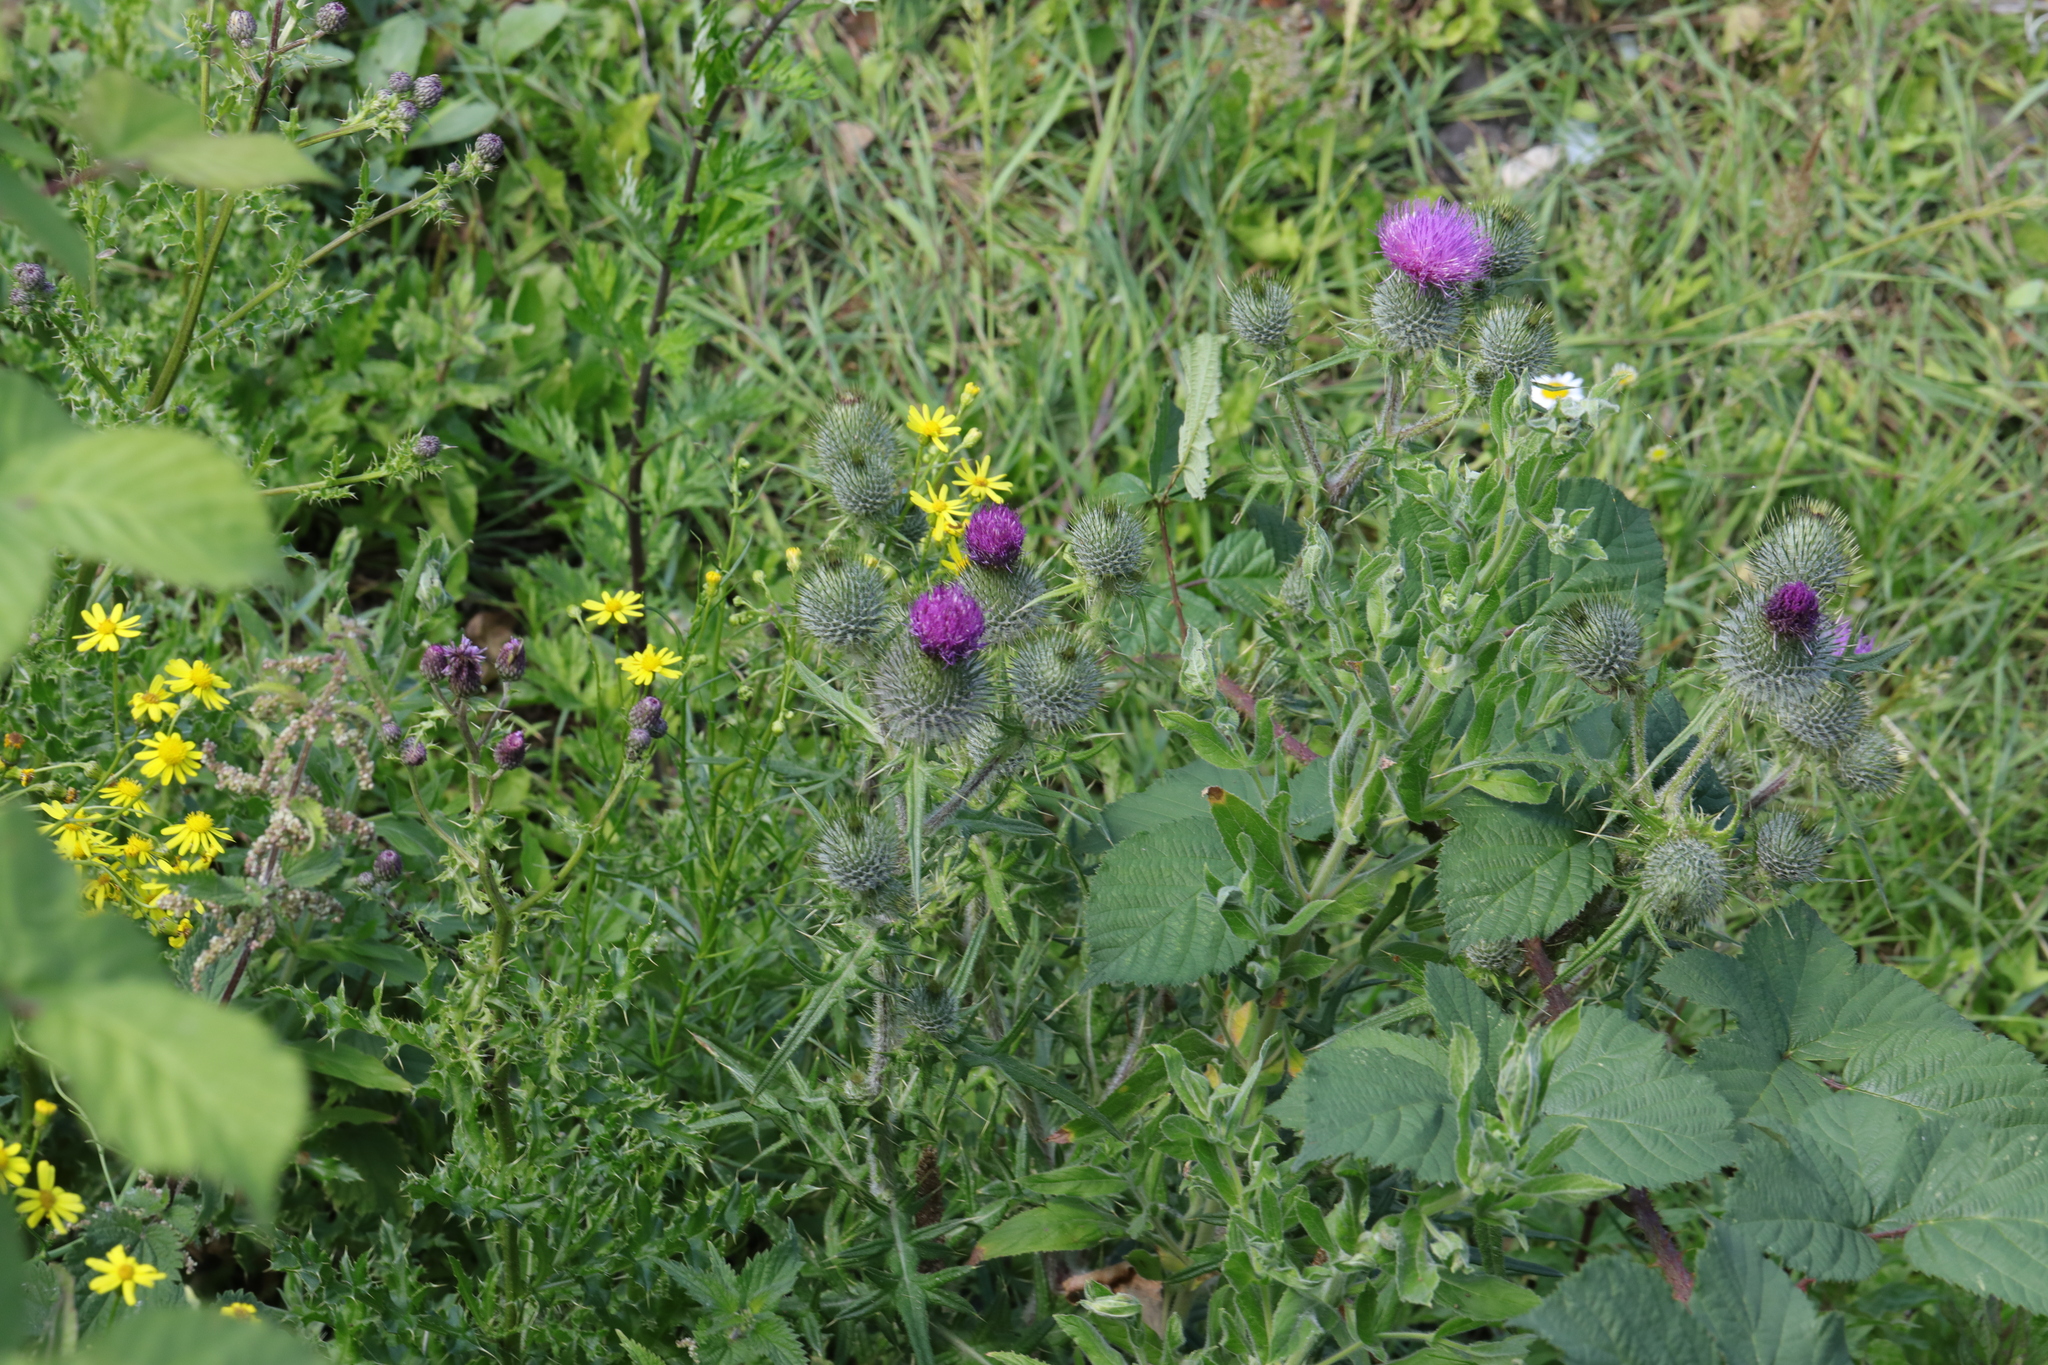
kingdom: Plantae
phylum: Tracheophyta
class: Magnoliopsida
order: Asterales
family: Asteraceae
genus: Cirsium
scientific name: Cirsium vulgare
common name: Bull thistle
